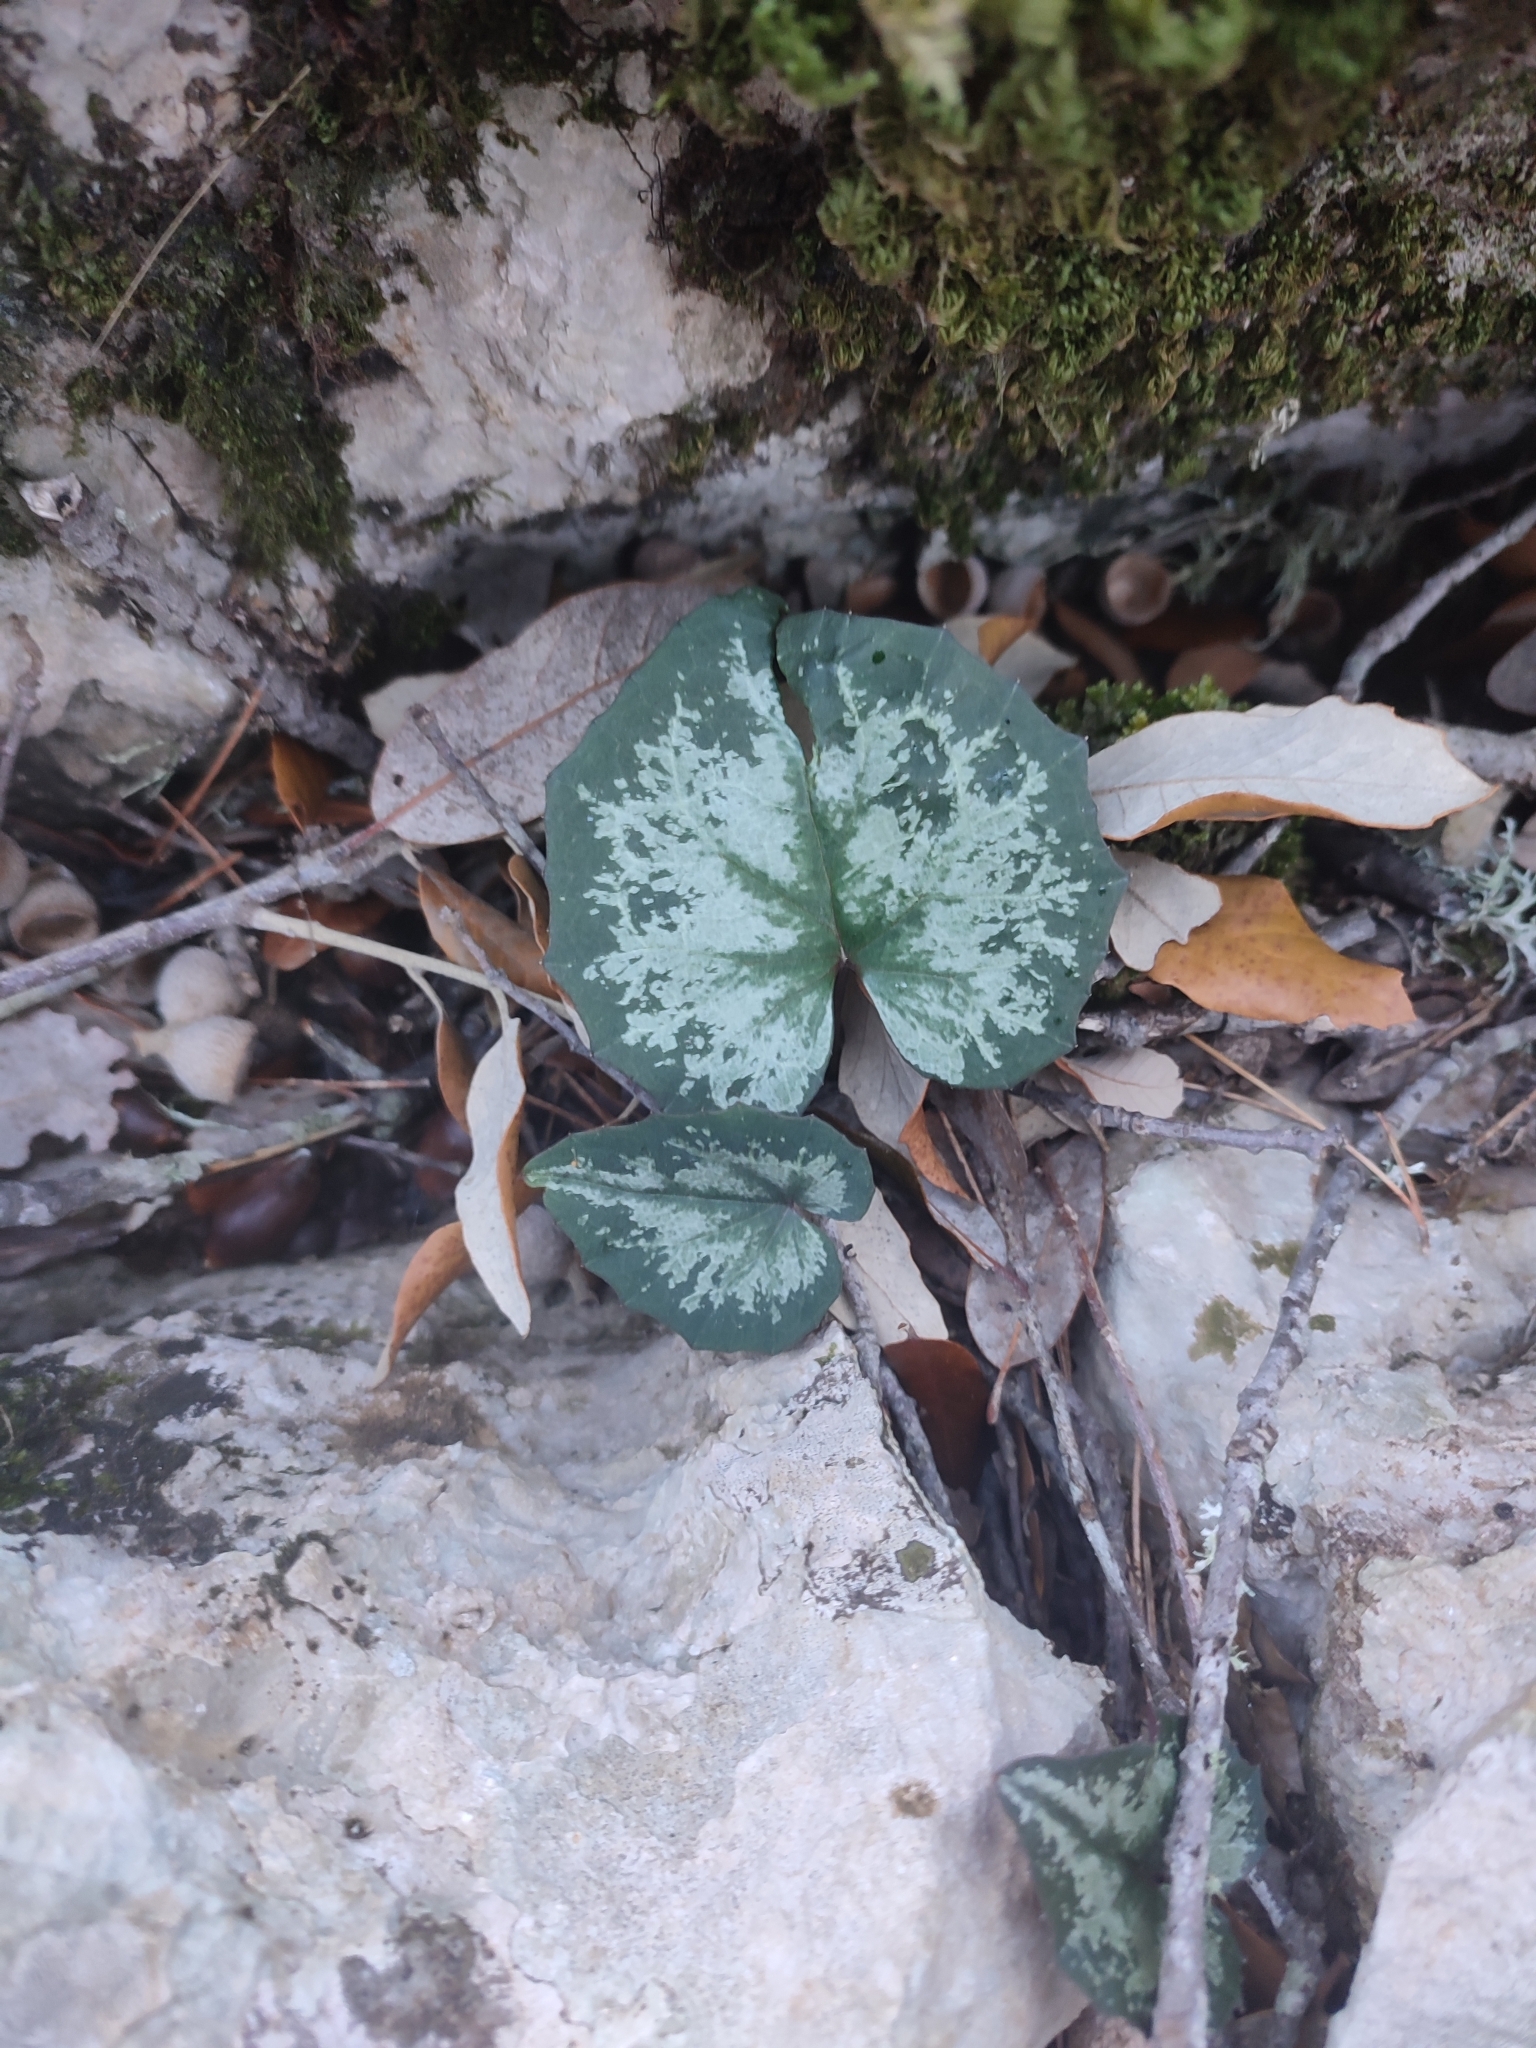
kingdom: Plantae
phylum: Tracheophyta
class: Magnoliopsida
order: Ericales
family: Primulaceae
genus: Cyclamen
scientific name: Cyclamen balearicum
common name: Majorca cyclamen
